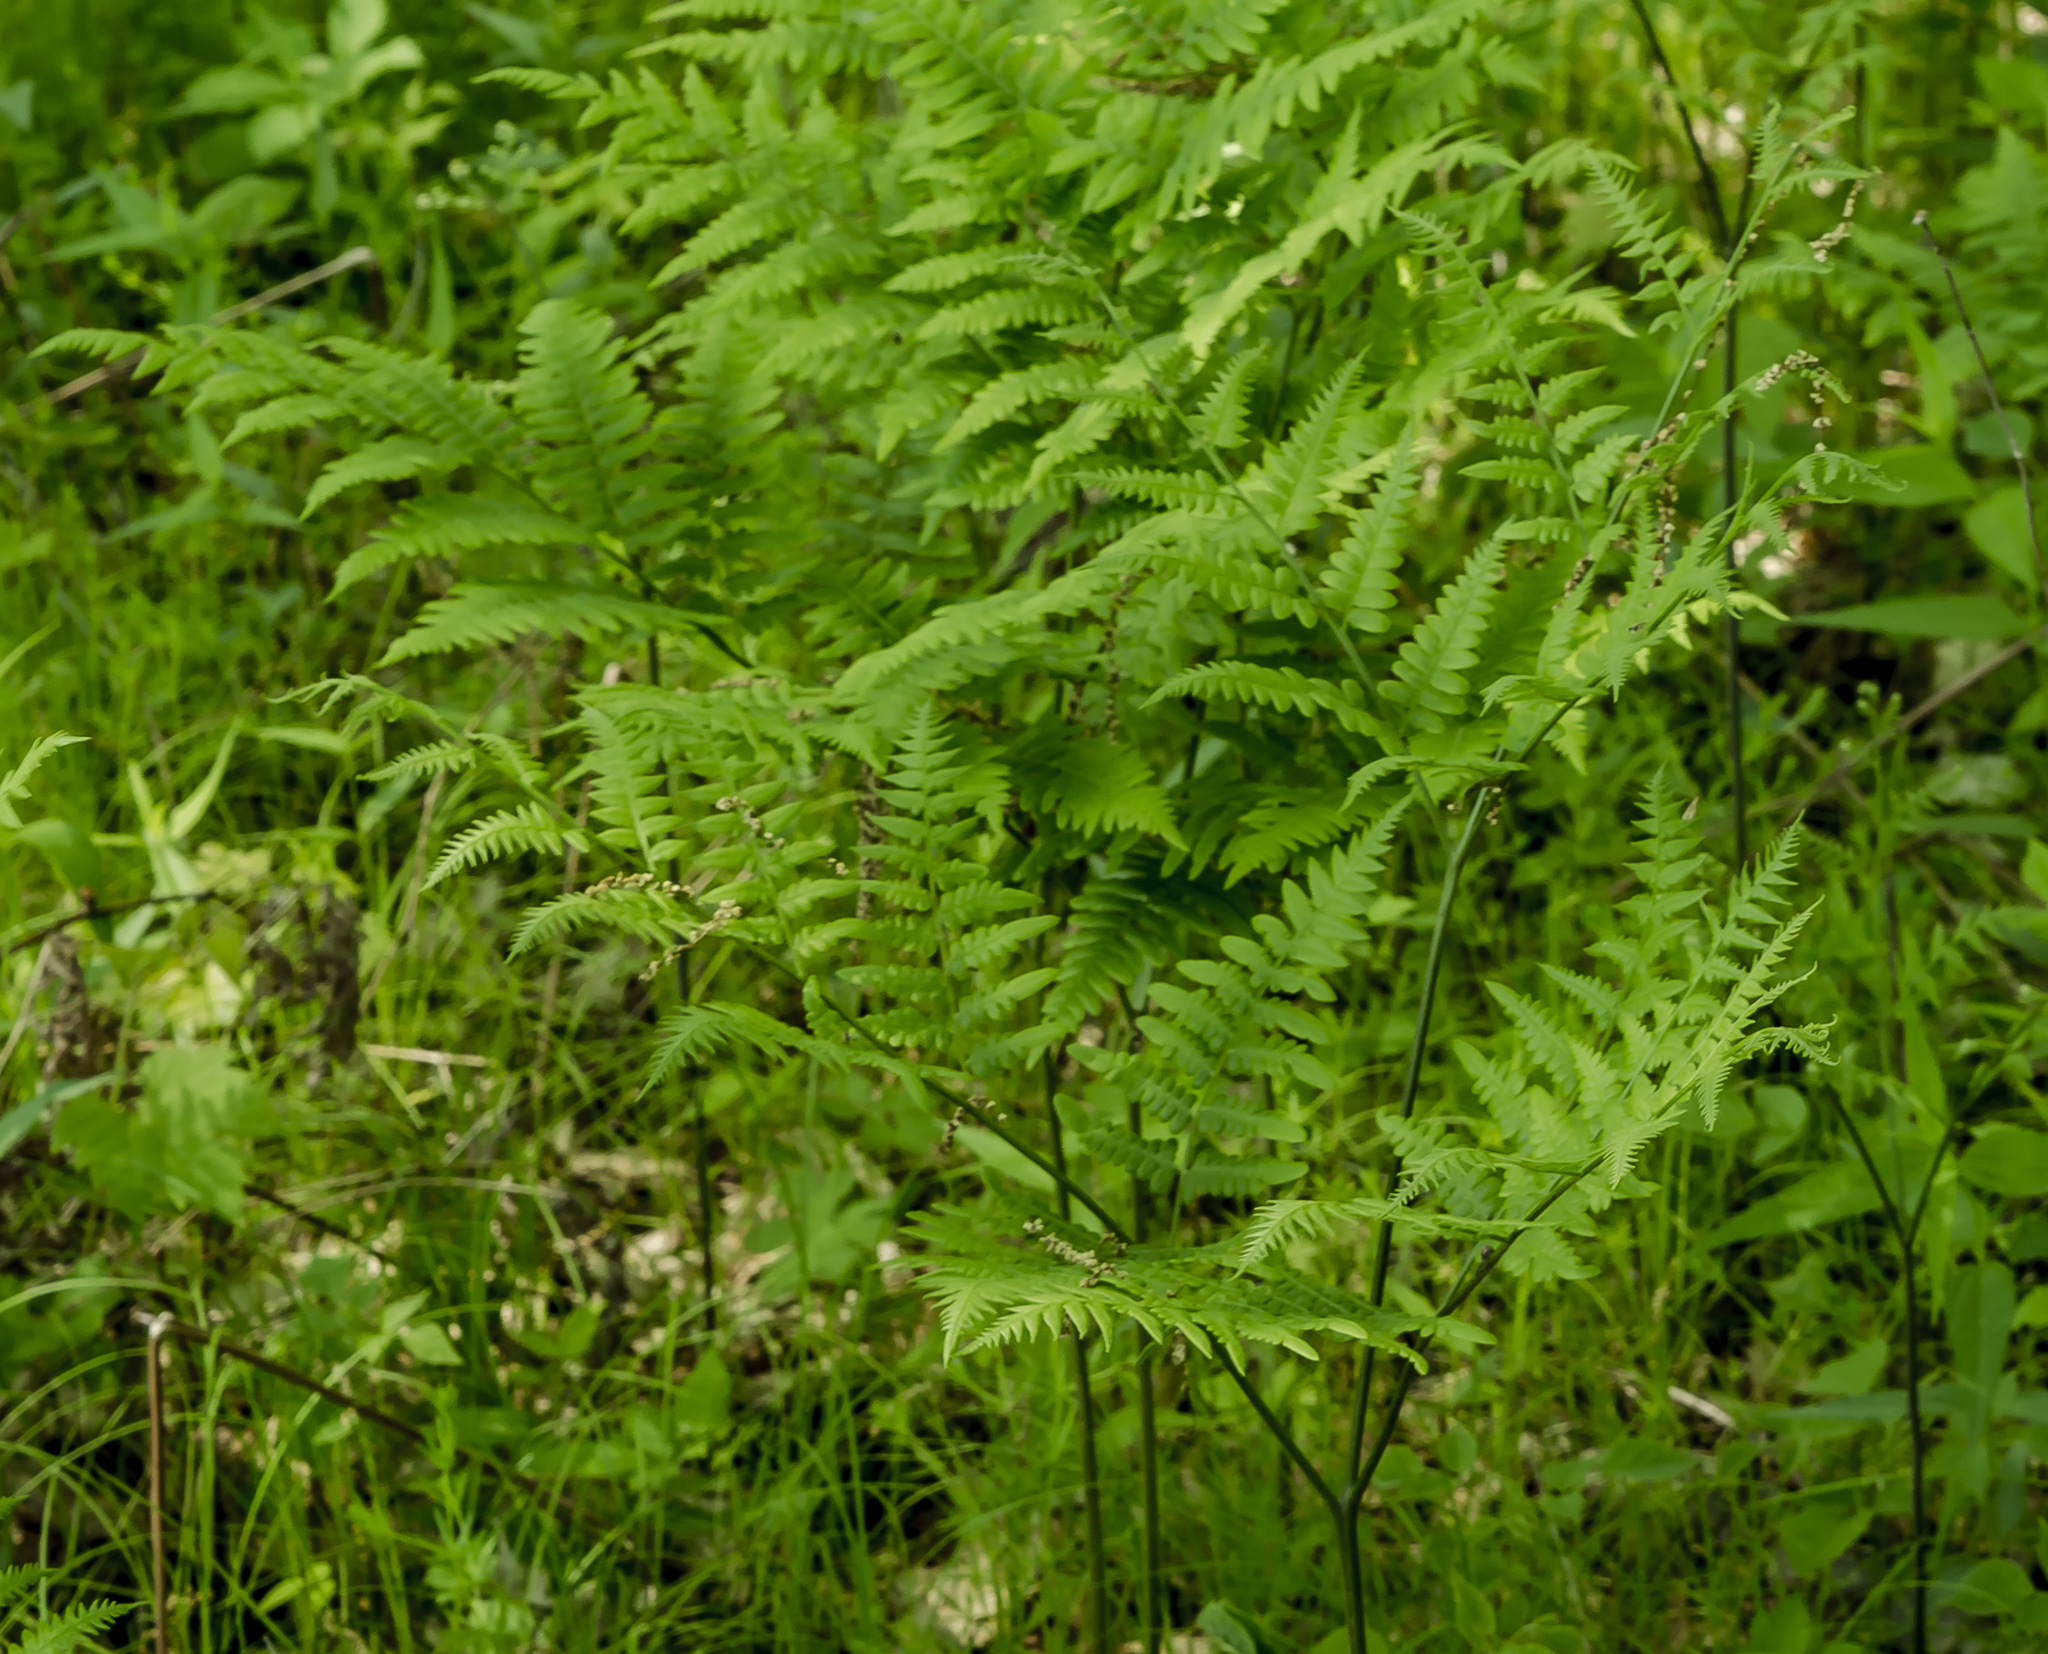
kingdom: Plantae
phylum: Tracheophyta
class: Polypodiopsida
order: Polypodiales
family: Dennstaedtiaceae
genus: Pteridium
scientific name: Pteridium aquilinum
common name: Bracken
